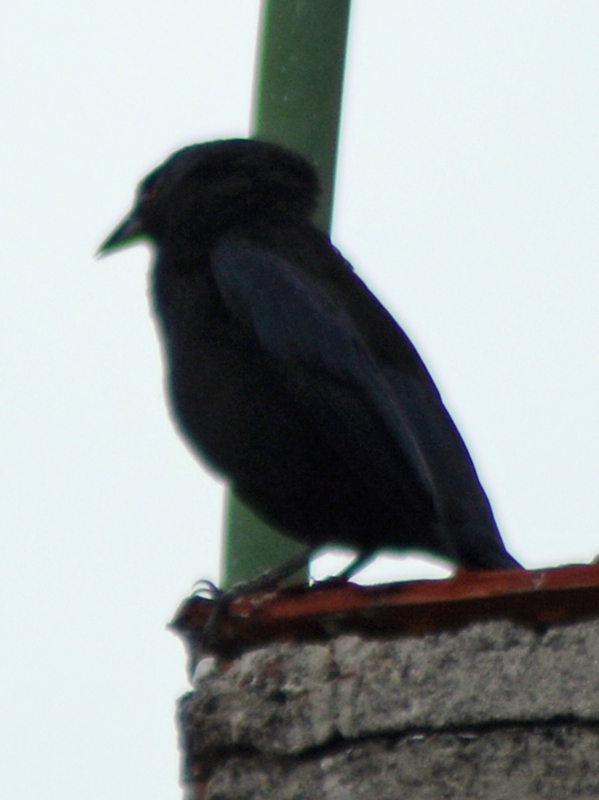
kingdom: Animalia
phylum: Chordata
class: Aves
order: Passeriformes
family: Icteridae
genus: Molothrus
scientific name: Molothrus aeneus
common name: Bronzed cowbird
